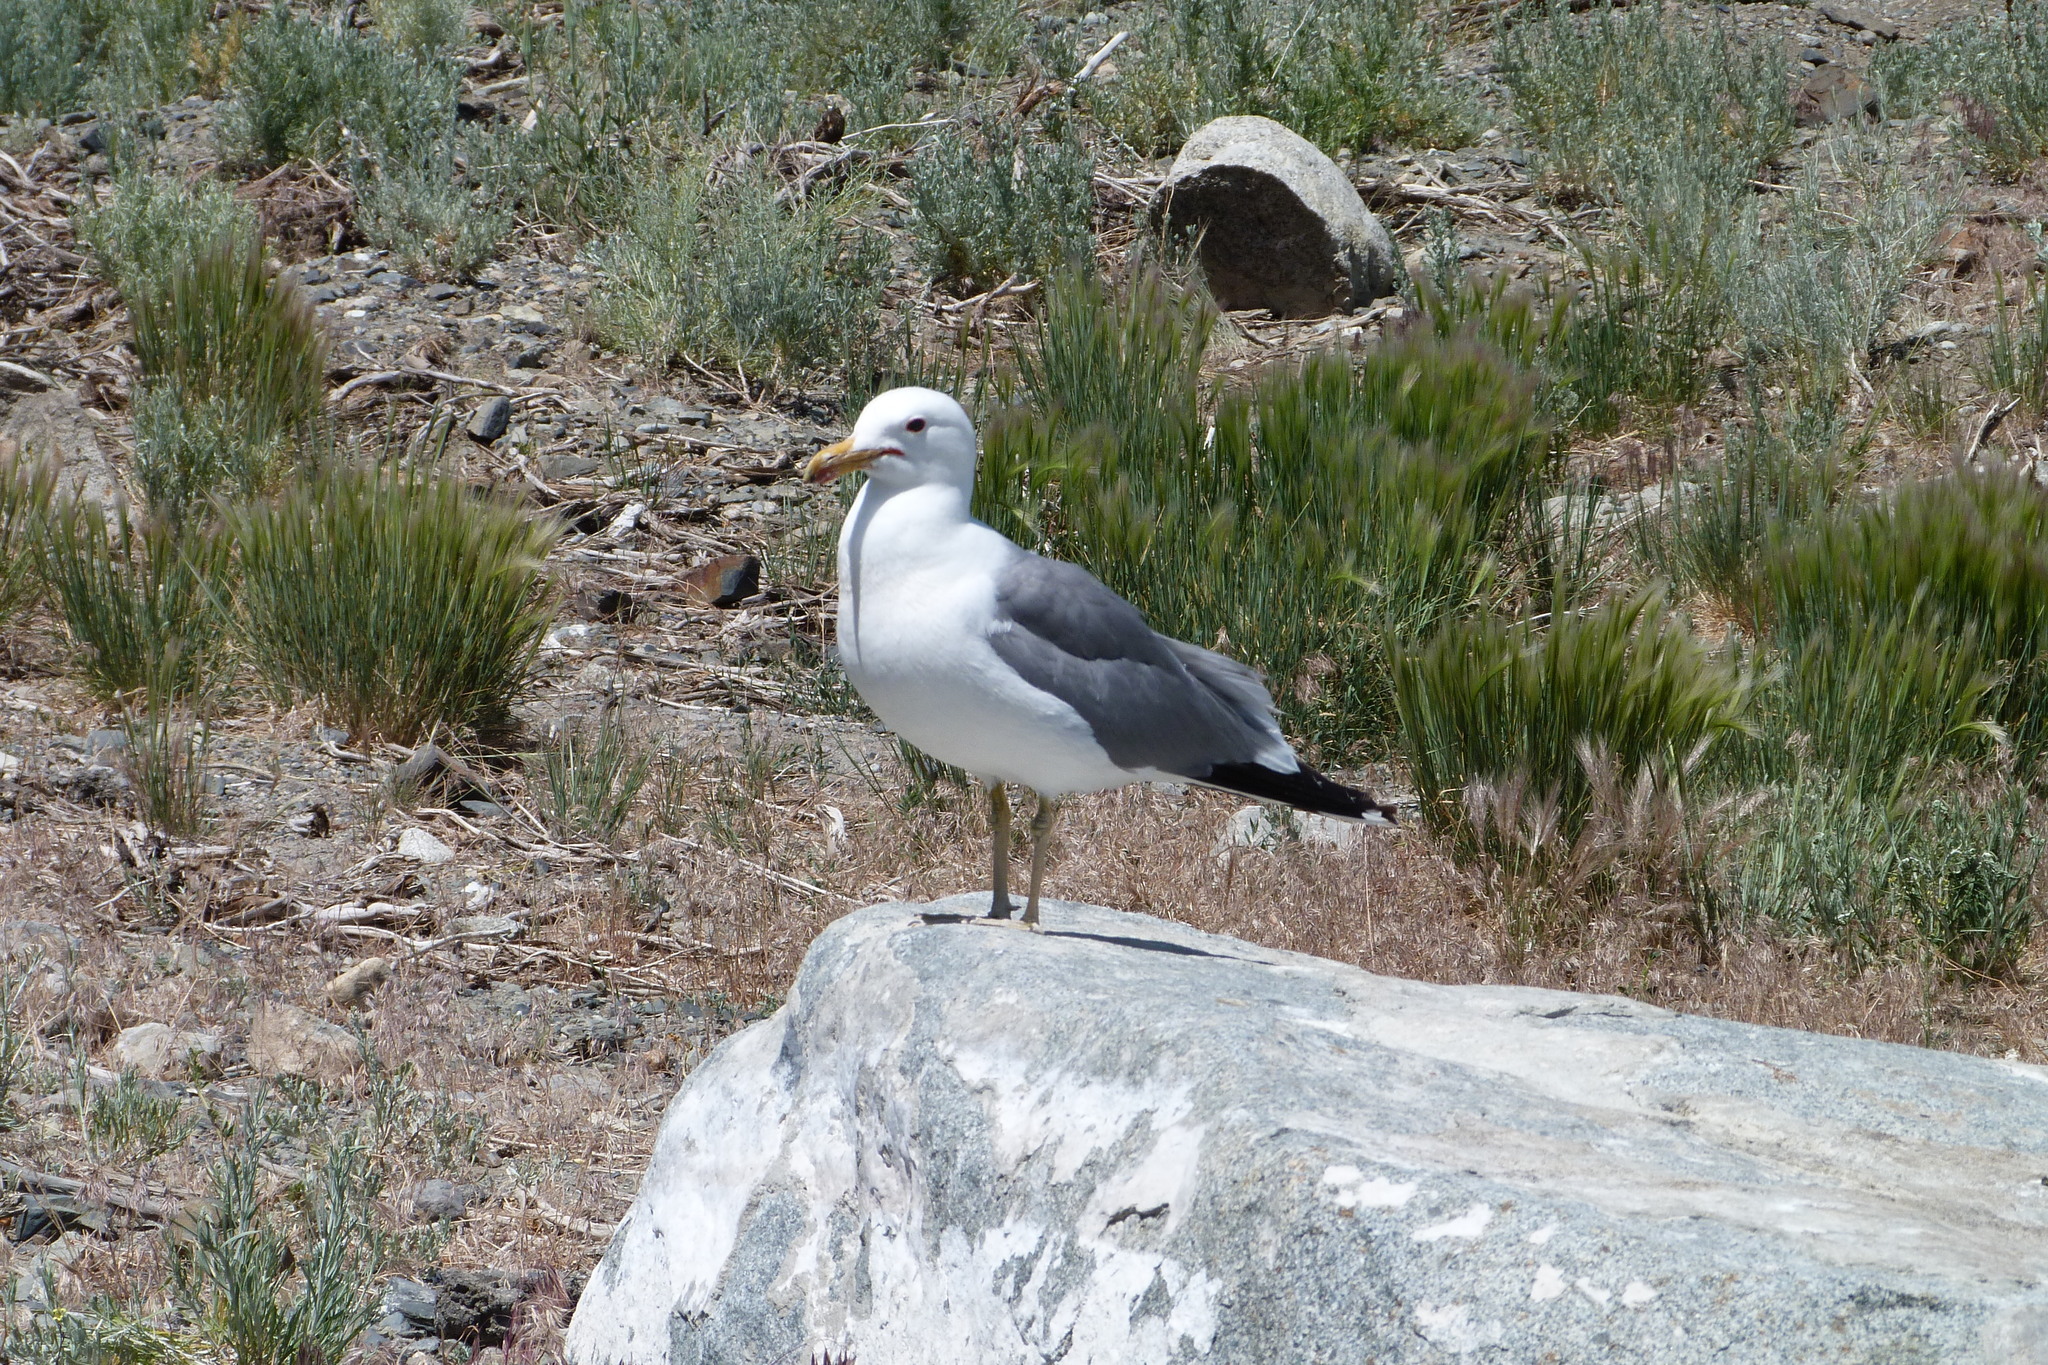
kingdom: Animalia
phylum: Chordata
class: Aves
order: Charadriiformes
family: Laridae
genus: Larus
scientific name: Larus californicus
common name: California gull
